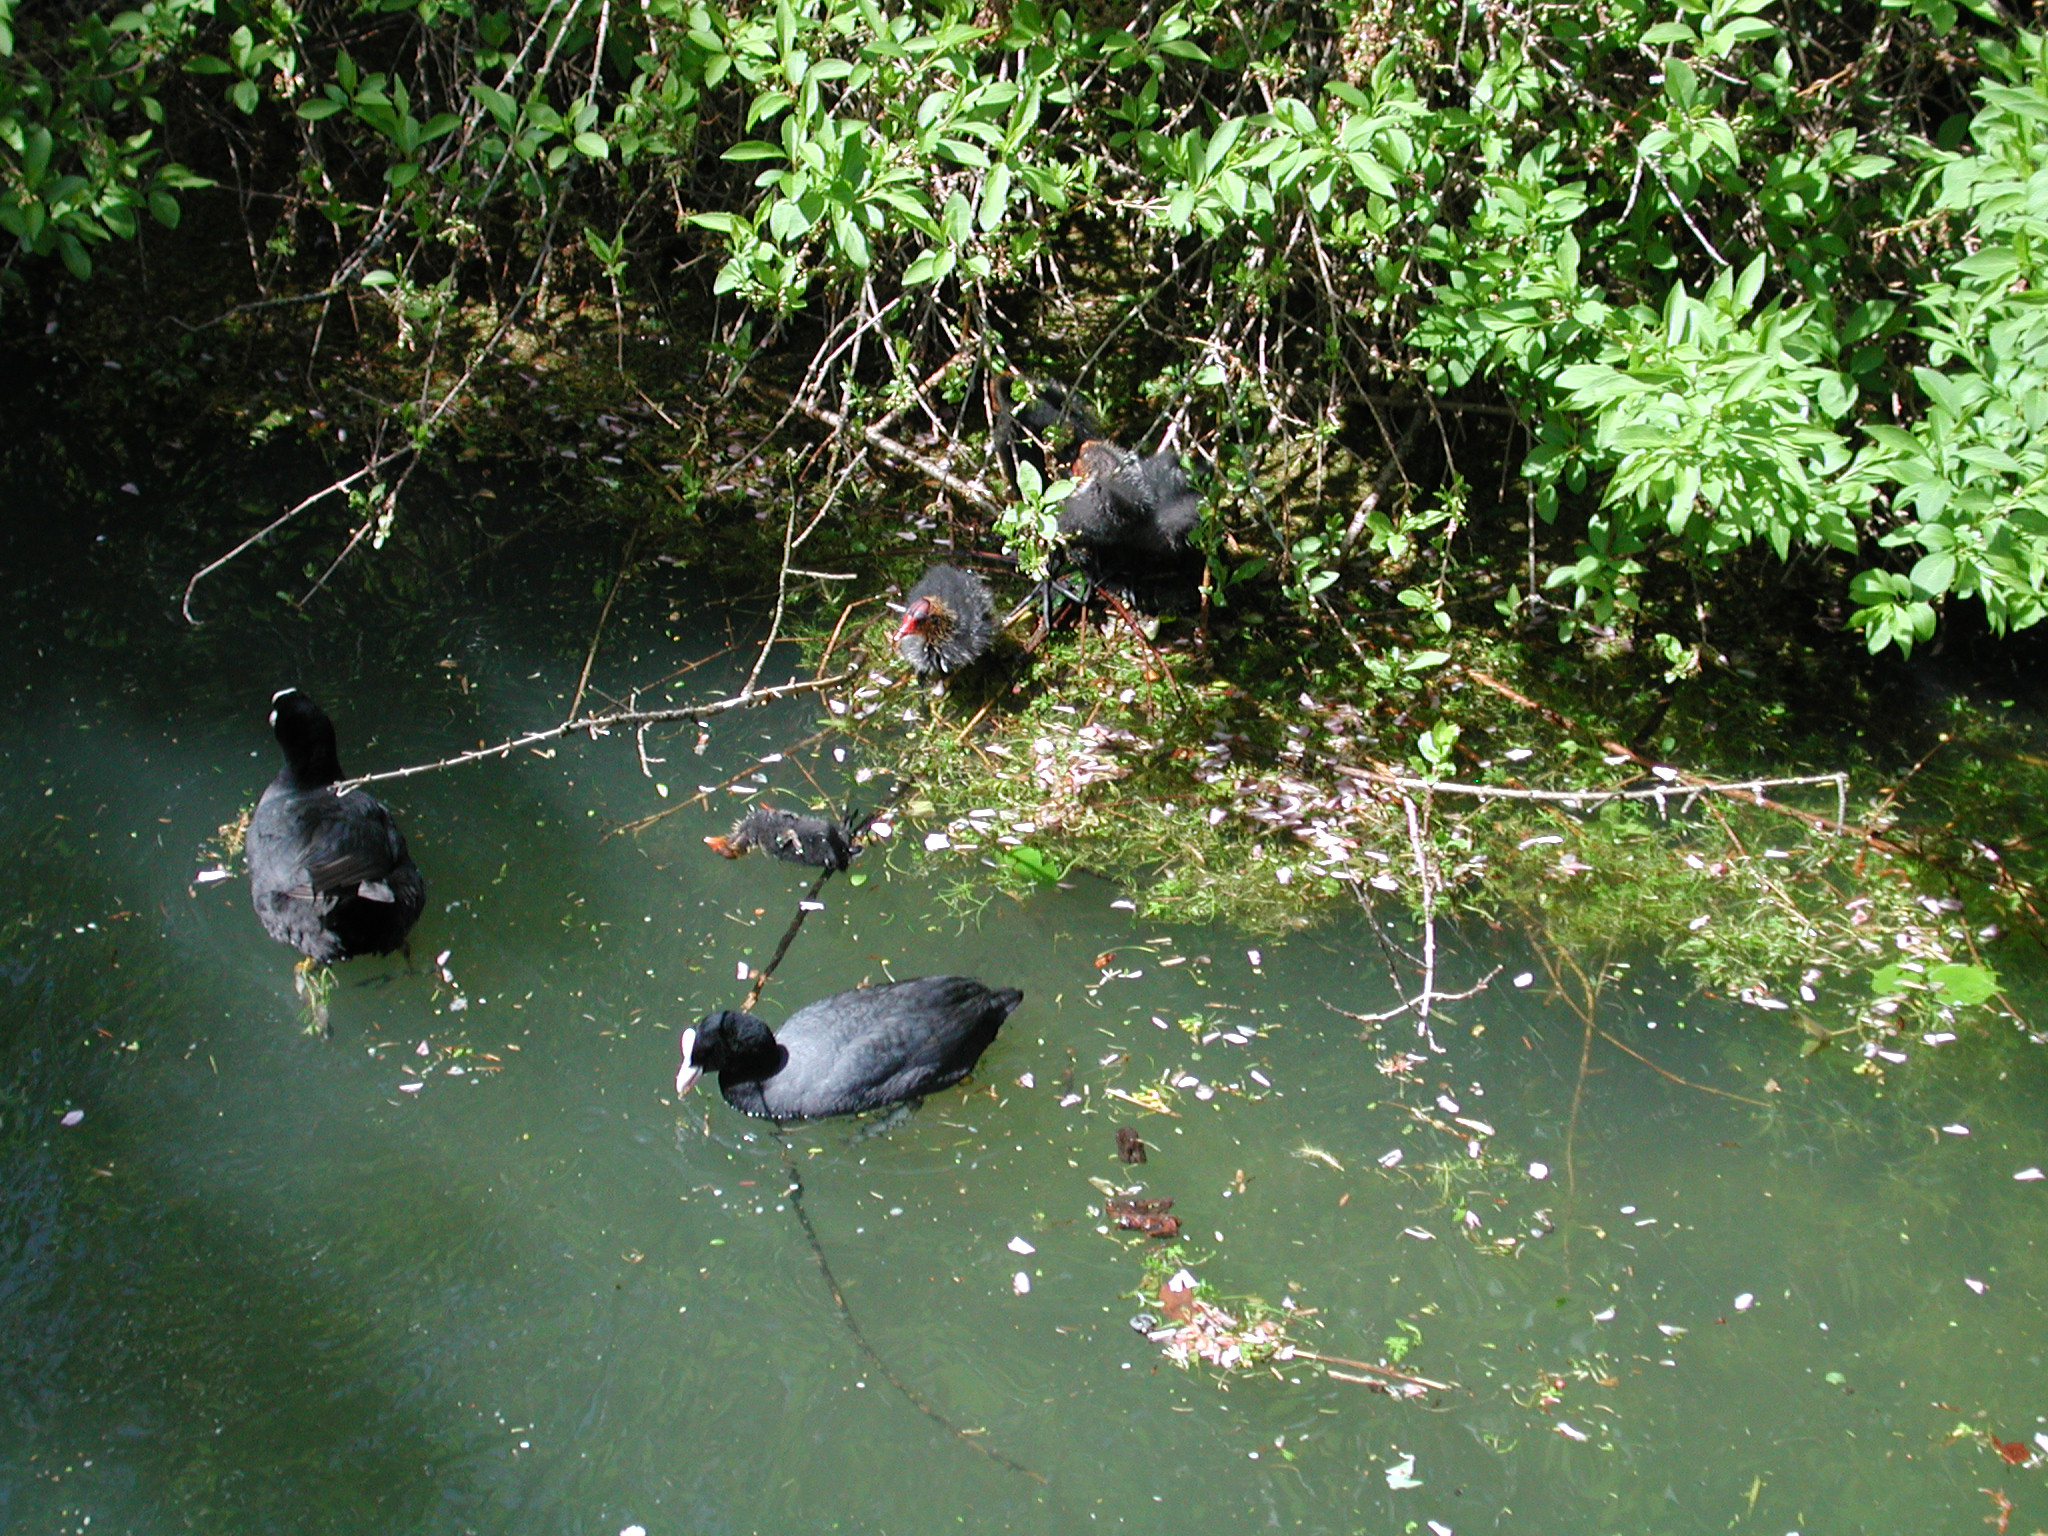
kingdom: Animalia
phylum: Chordata
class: Aves
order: Gruiformes
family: Rallidae
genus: Fulica
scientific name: Fulica atra
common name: Eurasian coot
